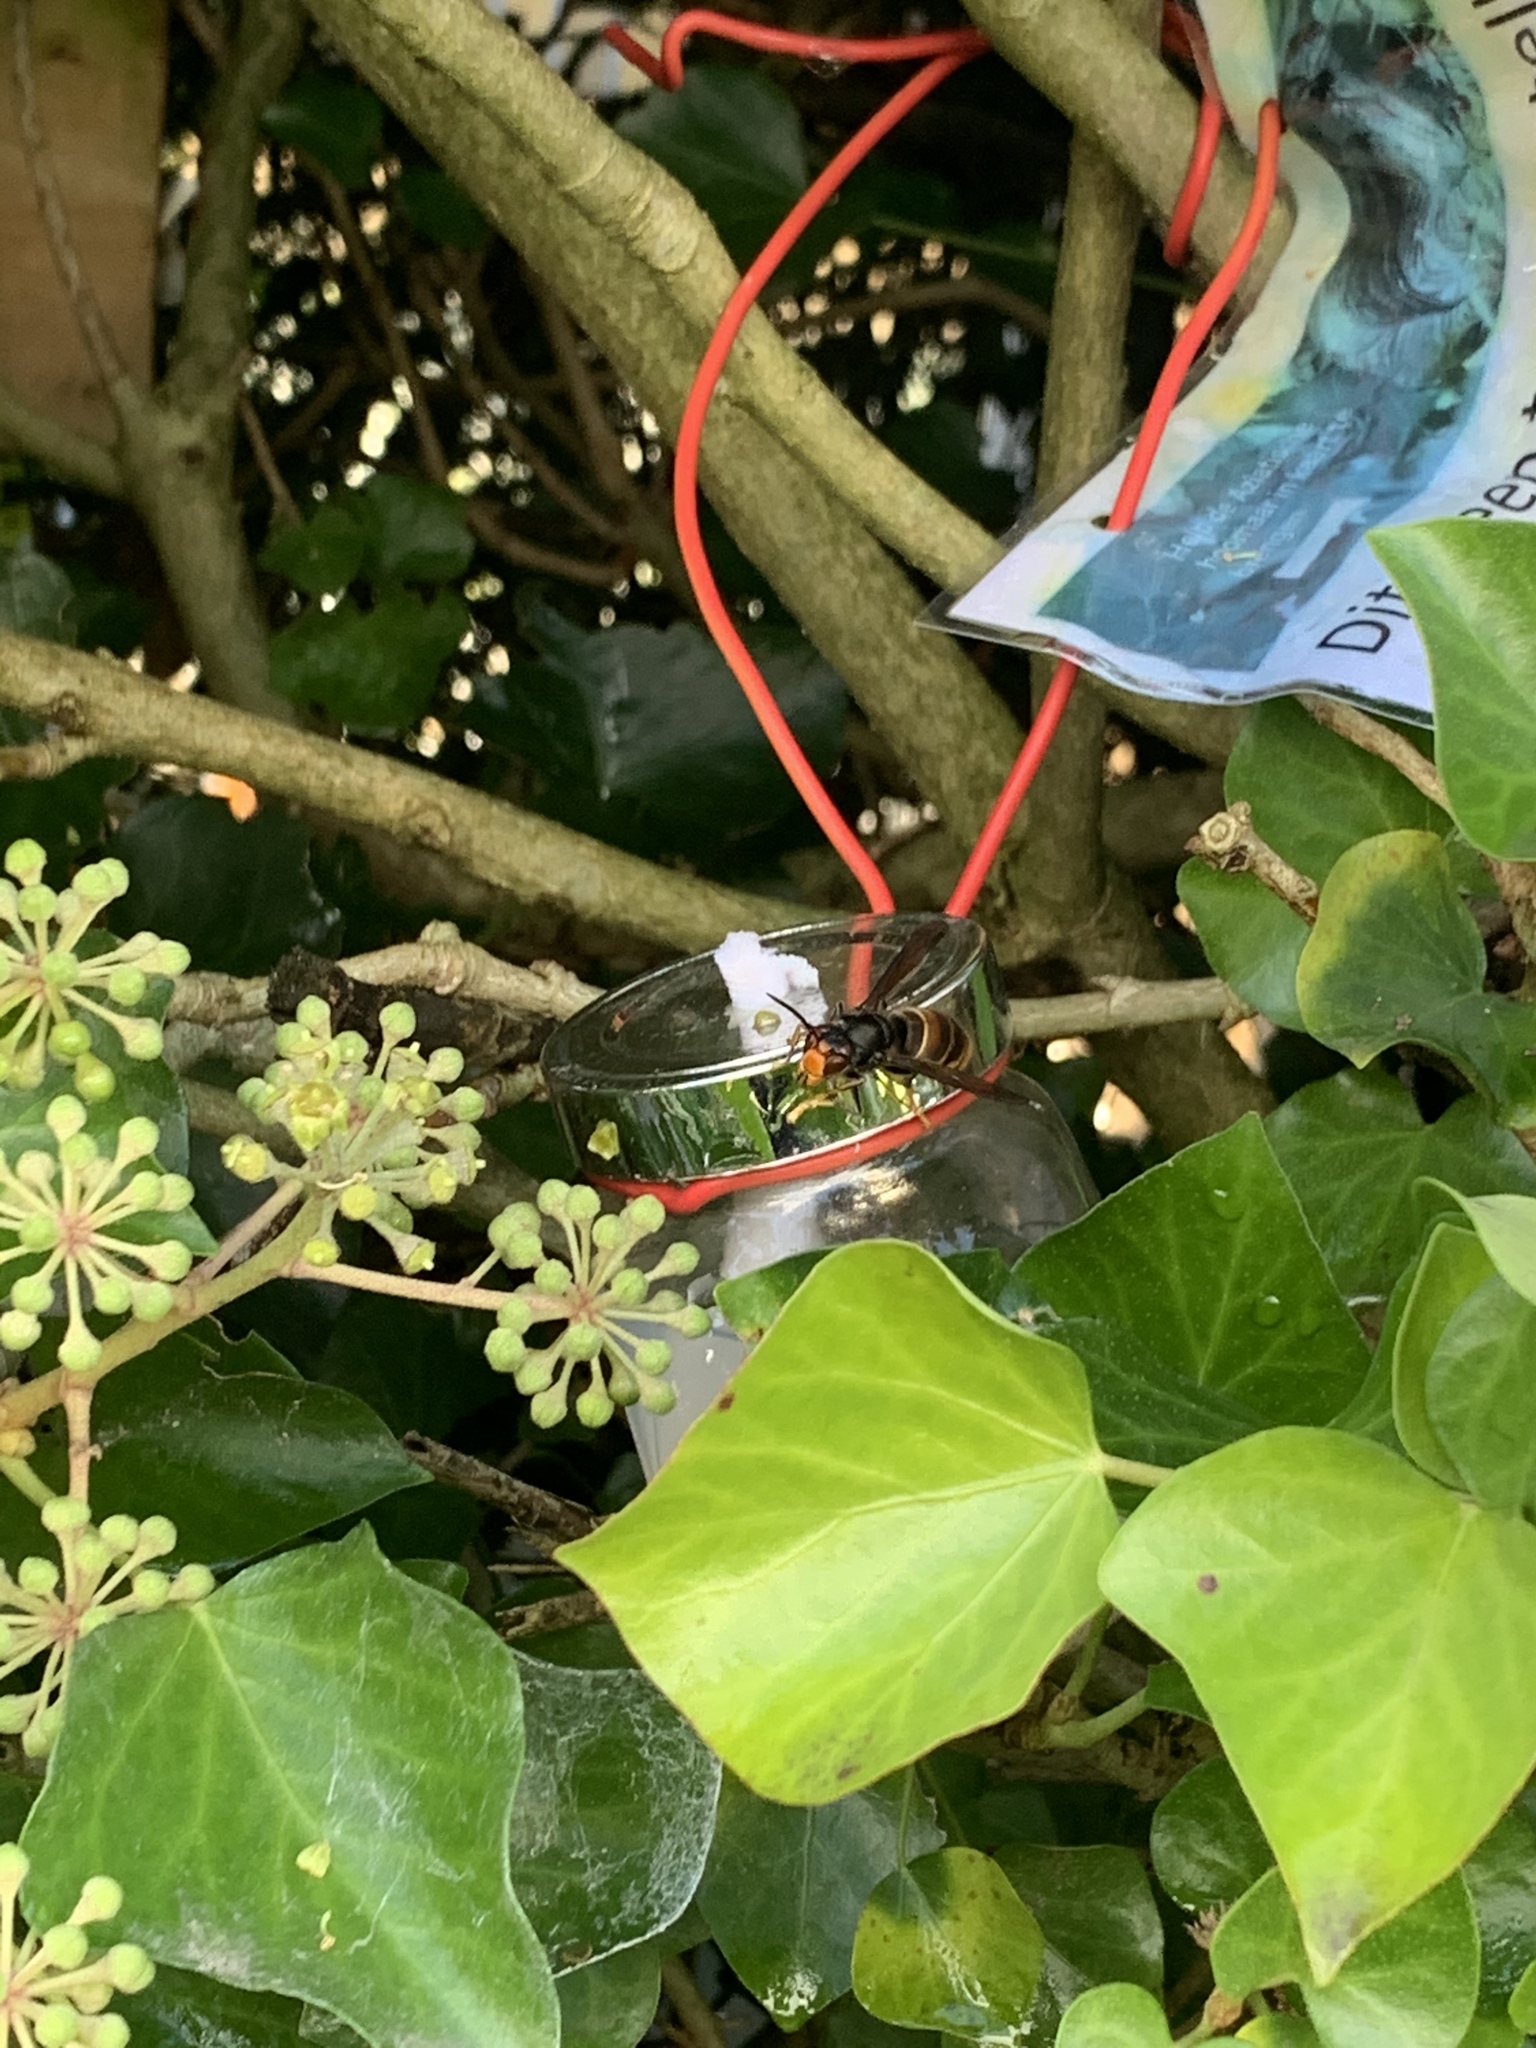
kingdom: Animalia
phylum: Arthropoda
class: Insecta
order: Hymenoptera
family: Vespidae
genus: Vespa
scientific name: Vespa velutina
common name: Asian hornet
